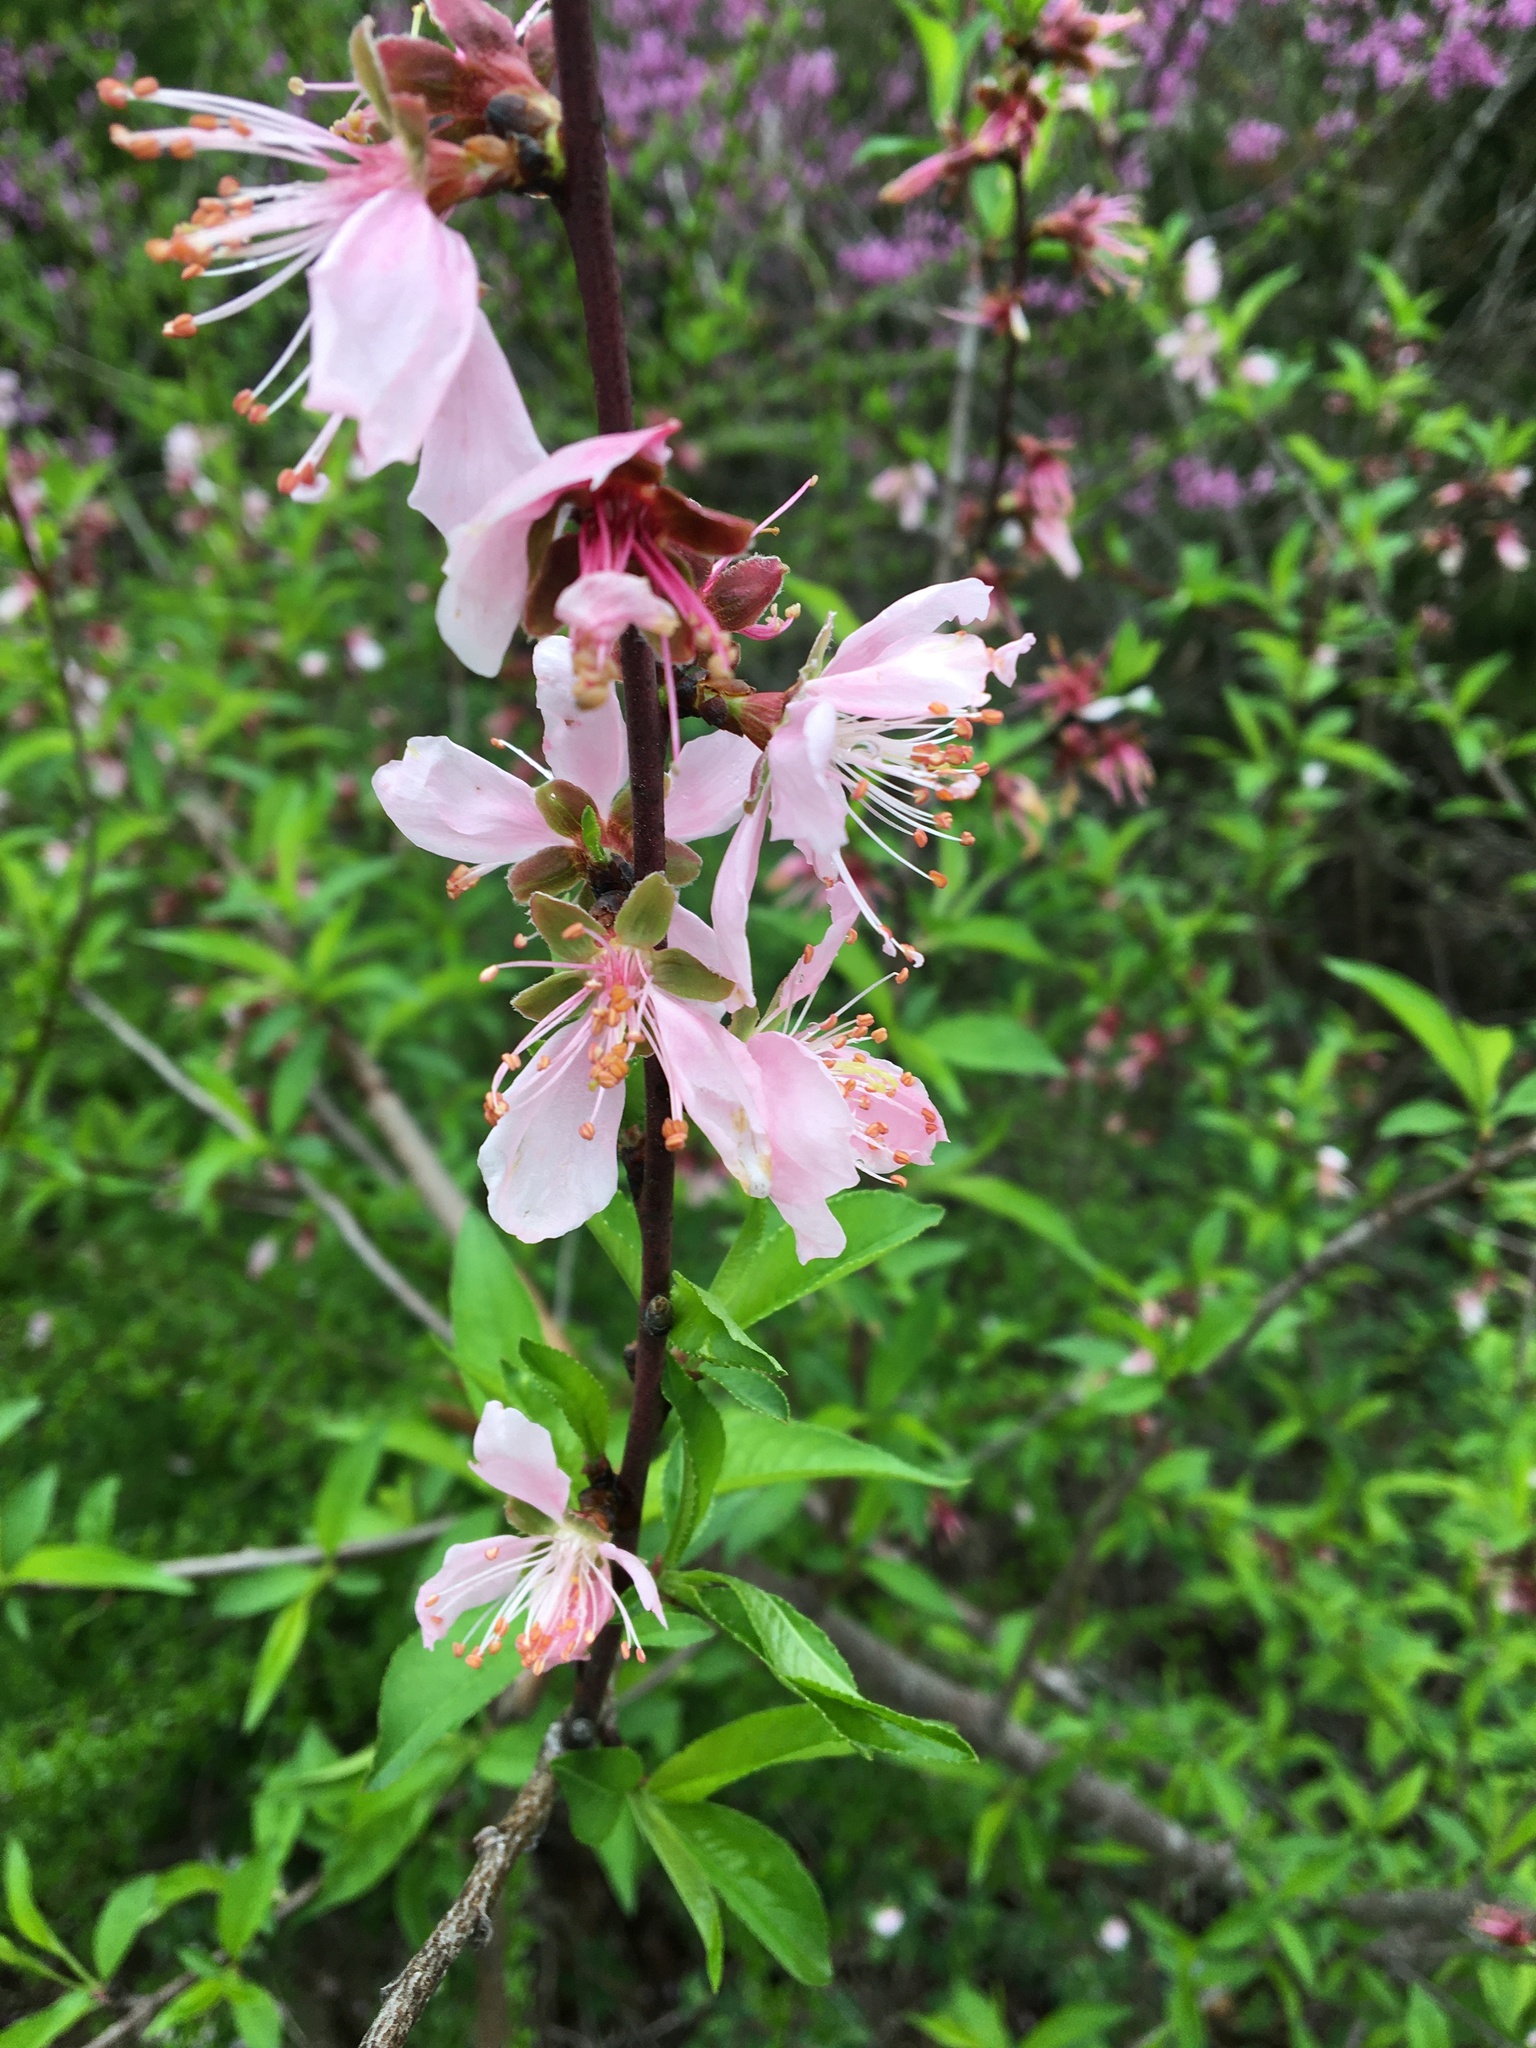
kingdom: Plantae
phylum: Tracheophyta
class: Magnoliopsida
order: Rosales
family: Rosaceae
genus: Prunus
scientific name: Prunus persica
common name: Peach
